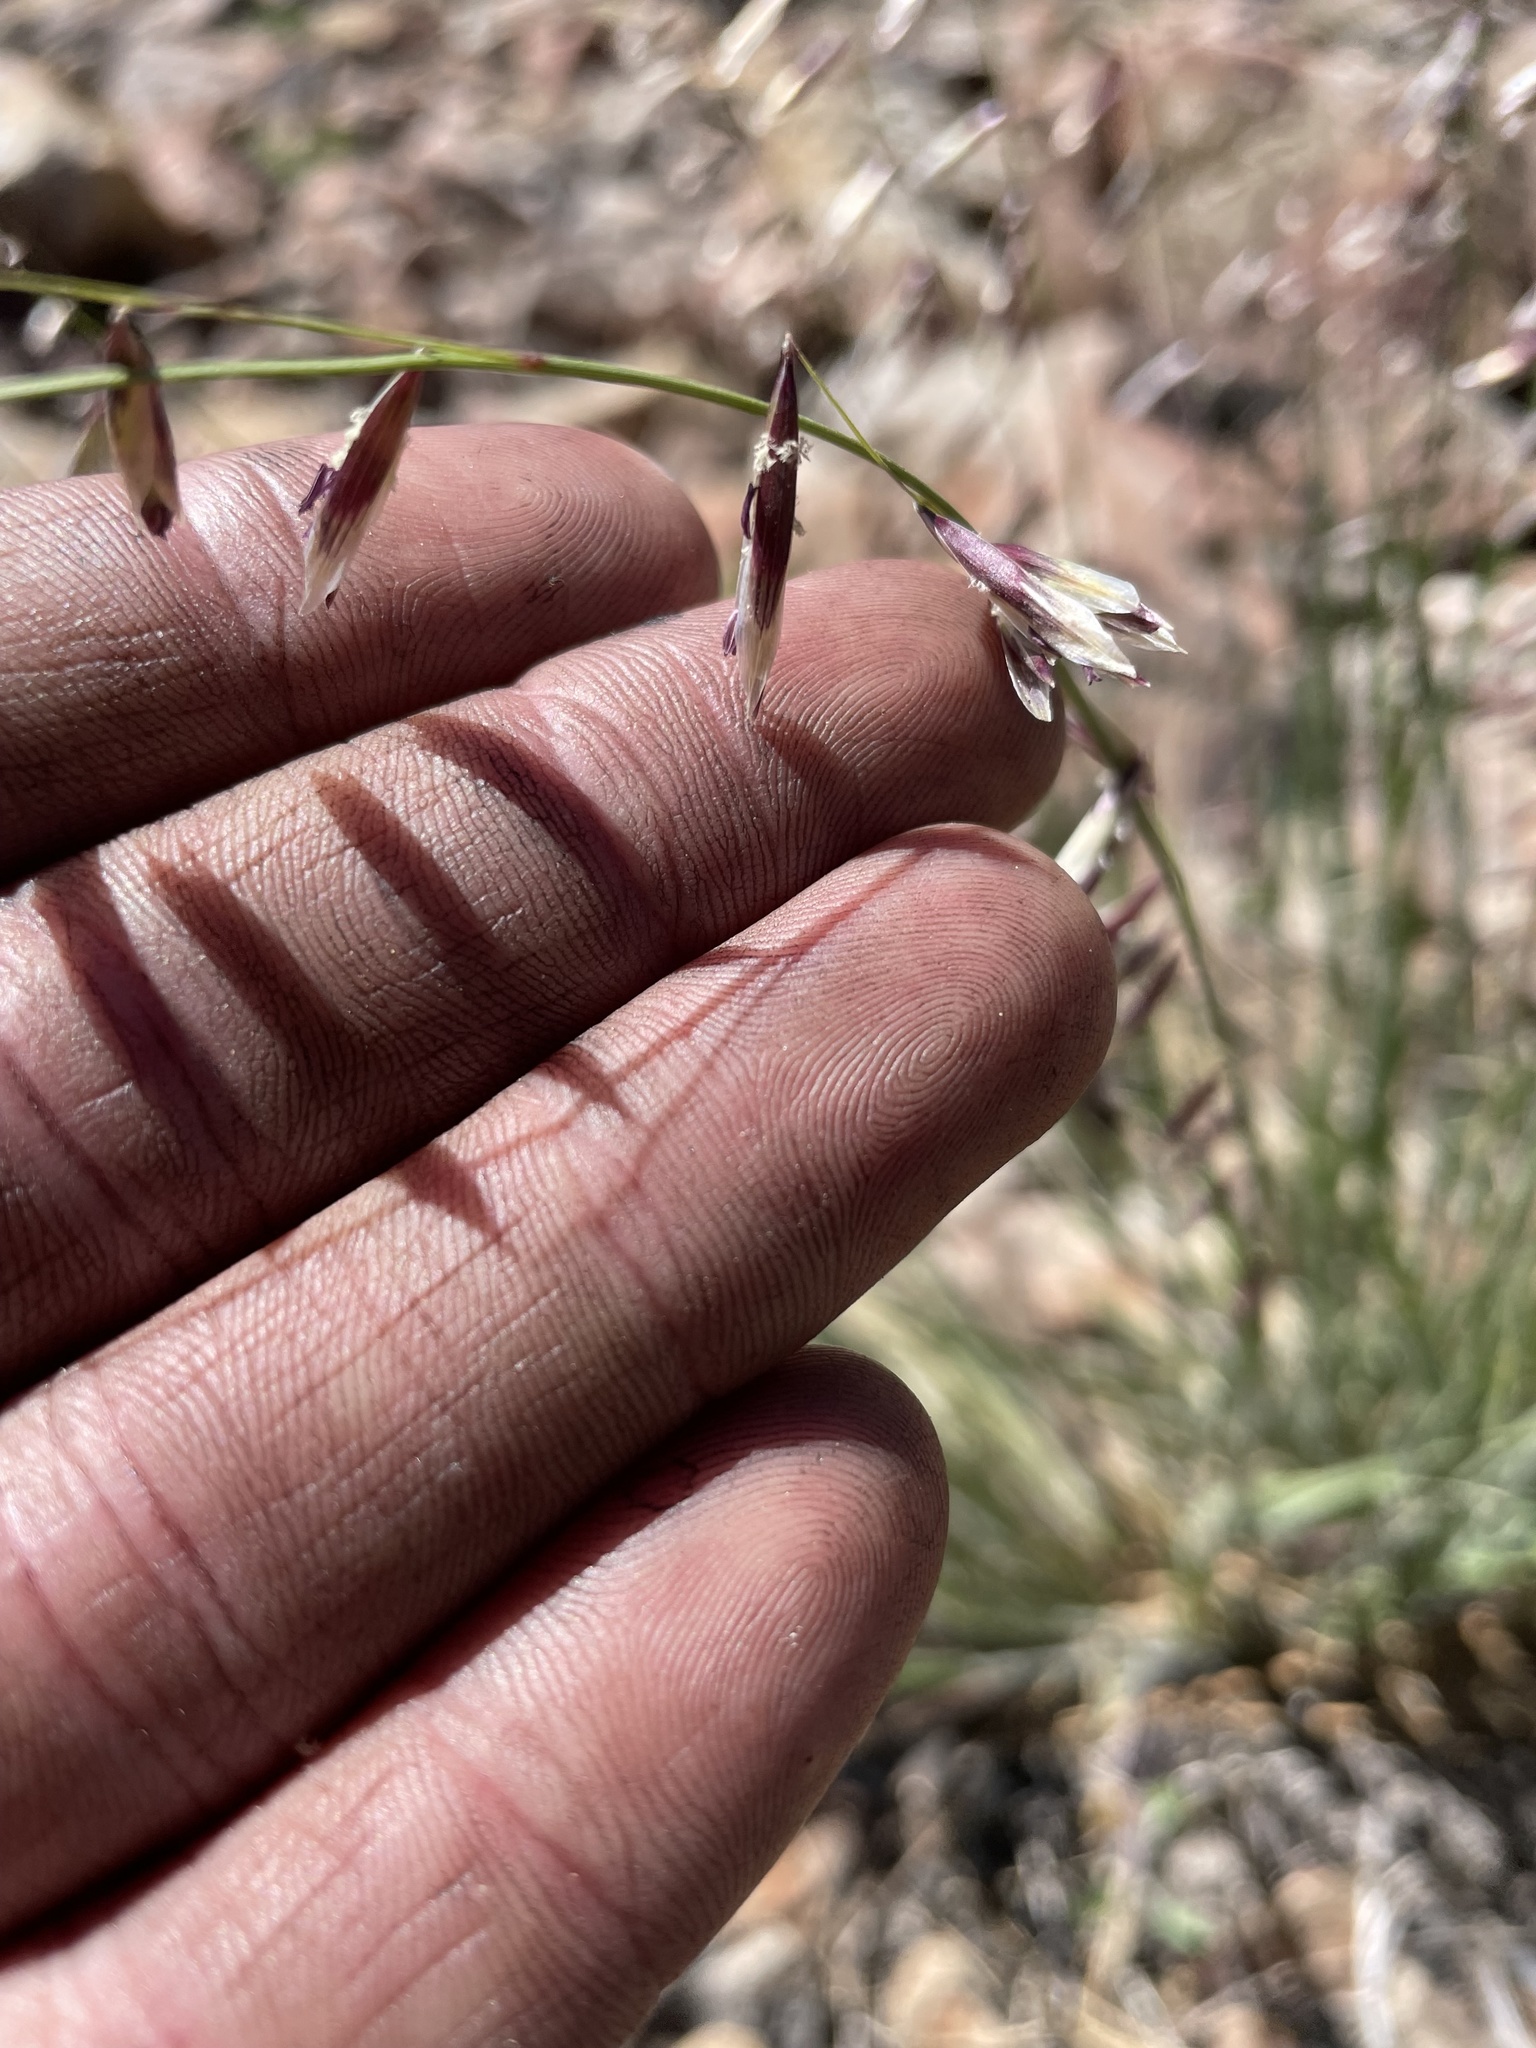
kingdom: Plantae
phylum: Tracheophyta
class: Liliopsida
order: Poales
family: Poaceae
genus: Melica
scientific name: Melica stricta
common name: Rock melic
